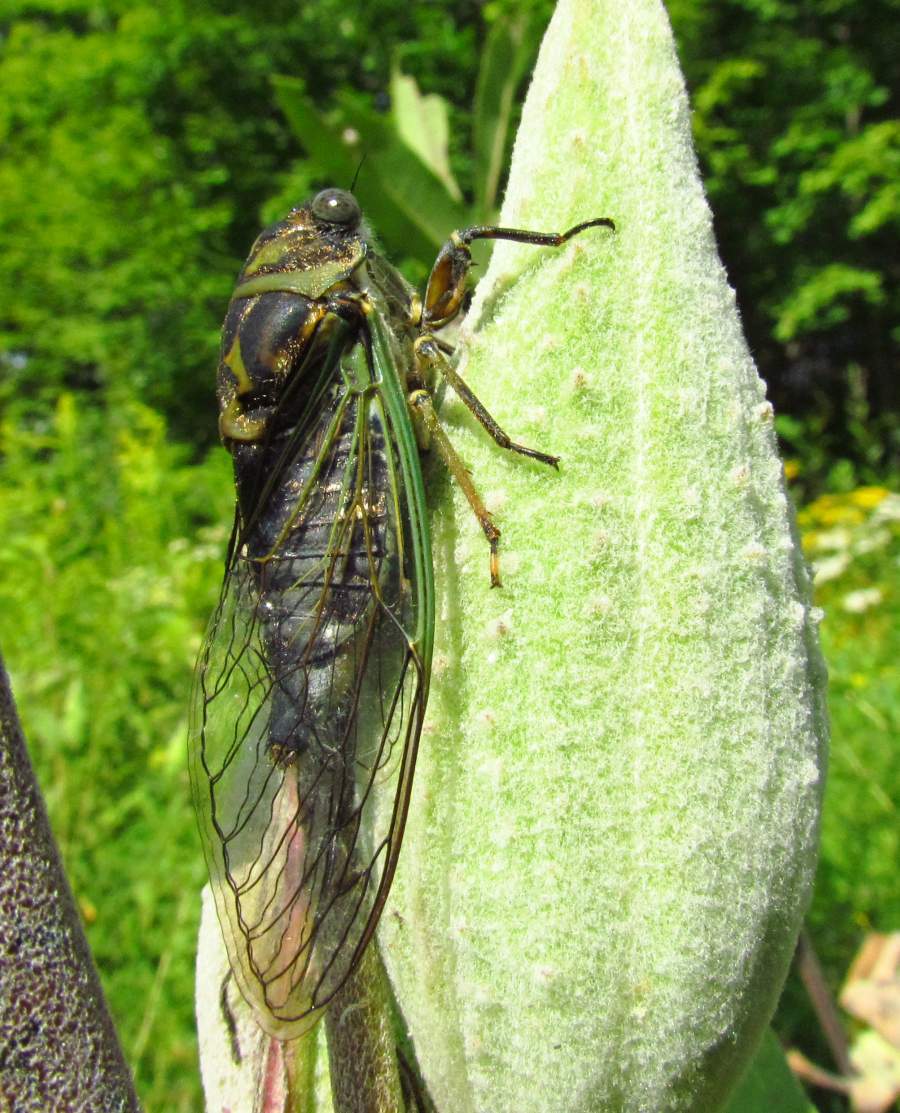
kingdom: Animalia
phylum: Arthropoda
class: Insecta
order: Hemiptera
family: Cicadidae
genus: Neotibicen
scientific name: Neotibicen canicularis
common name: God-day cicada
